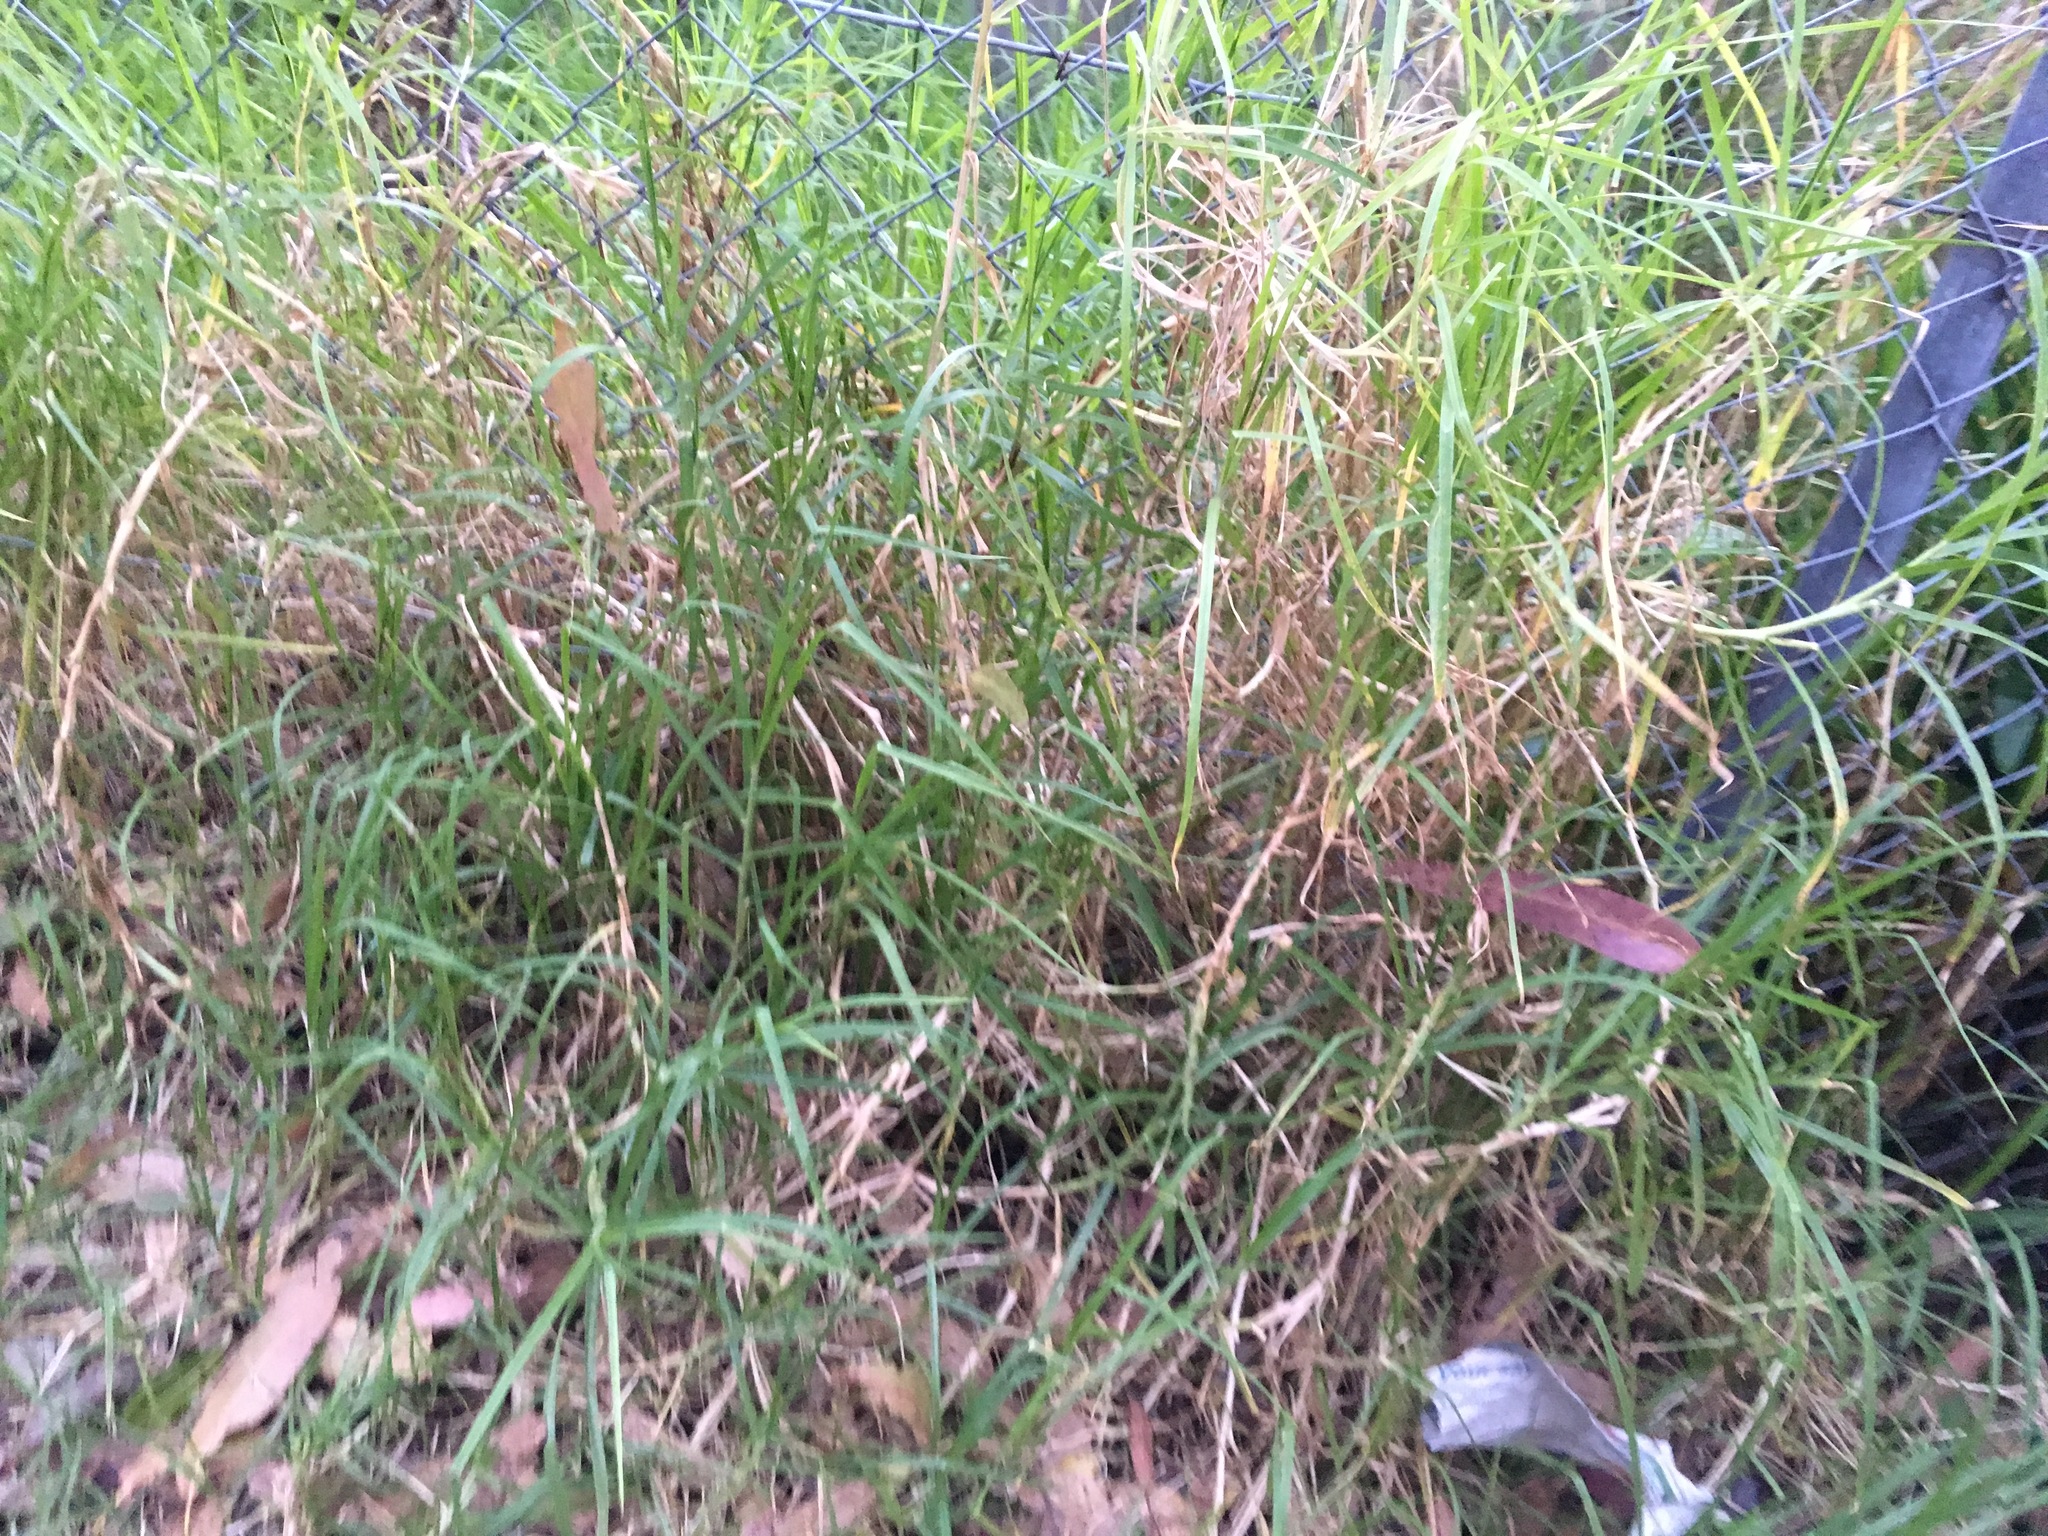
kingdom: Plantae
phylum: Tracheophyta
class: Liliopsida
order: Poales
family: Poaceae
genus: Cenchrus
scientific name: Cenchrus clandestinus
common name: Kikuyugrass
